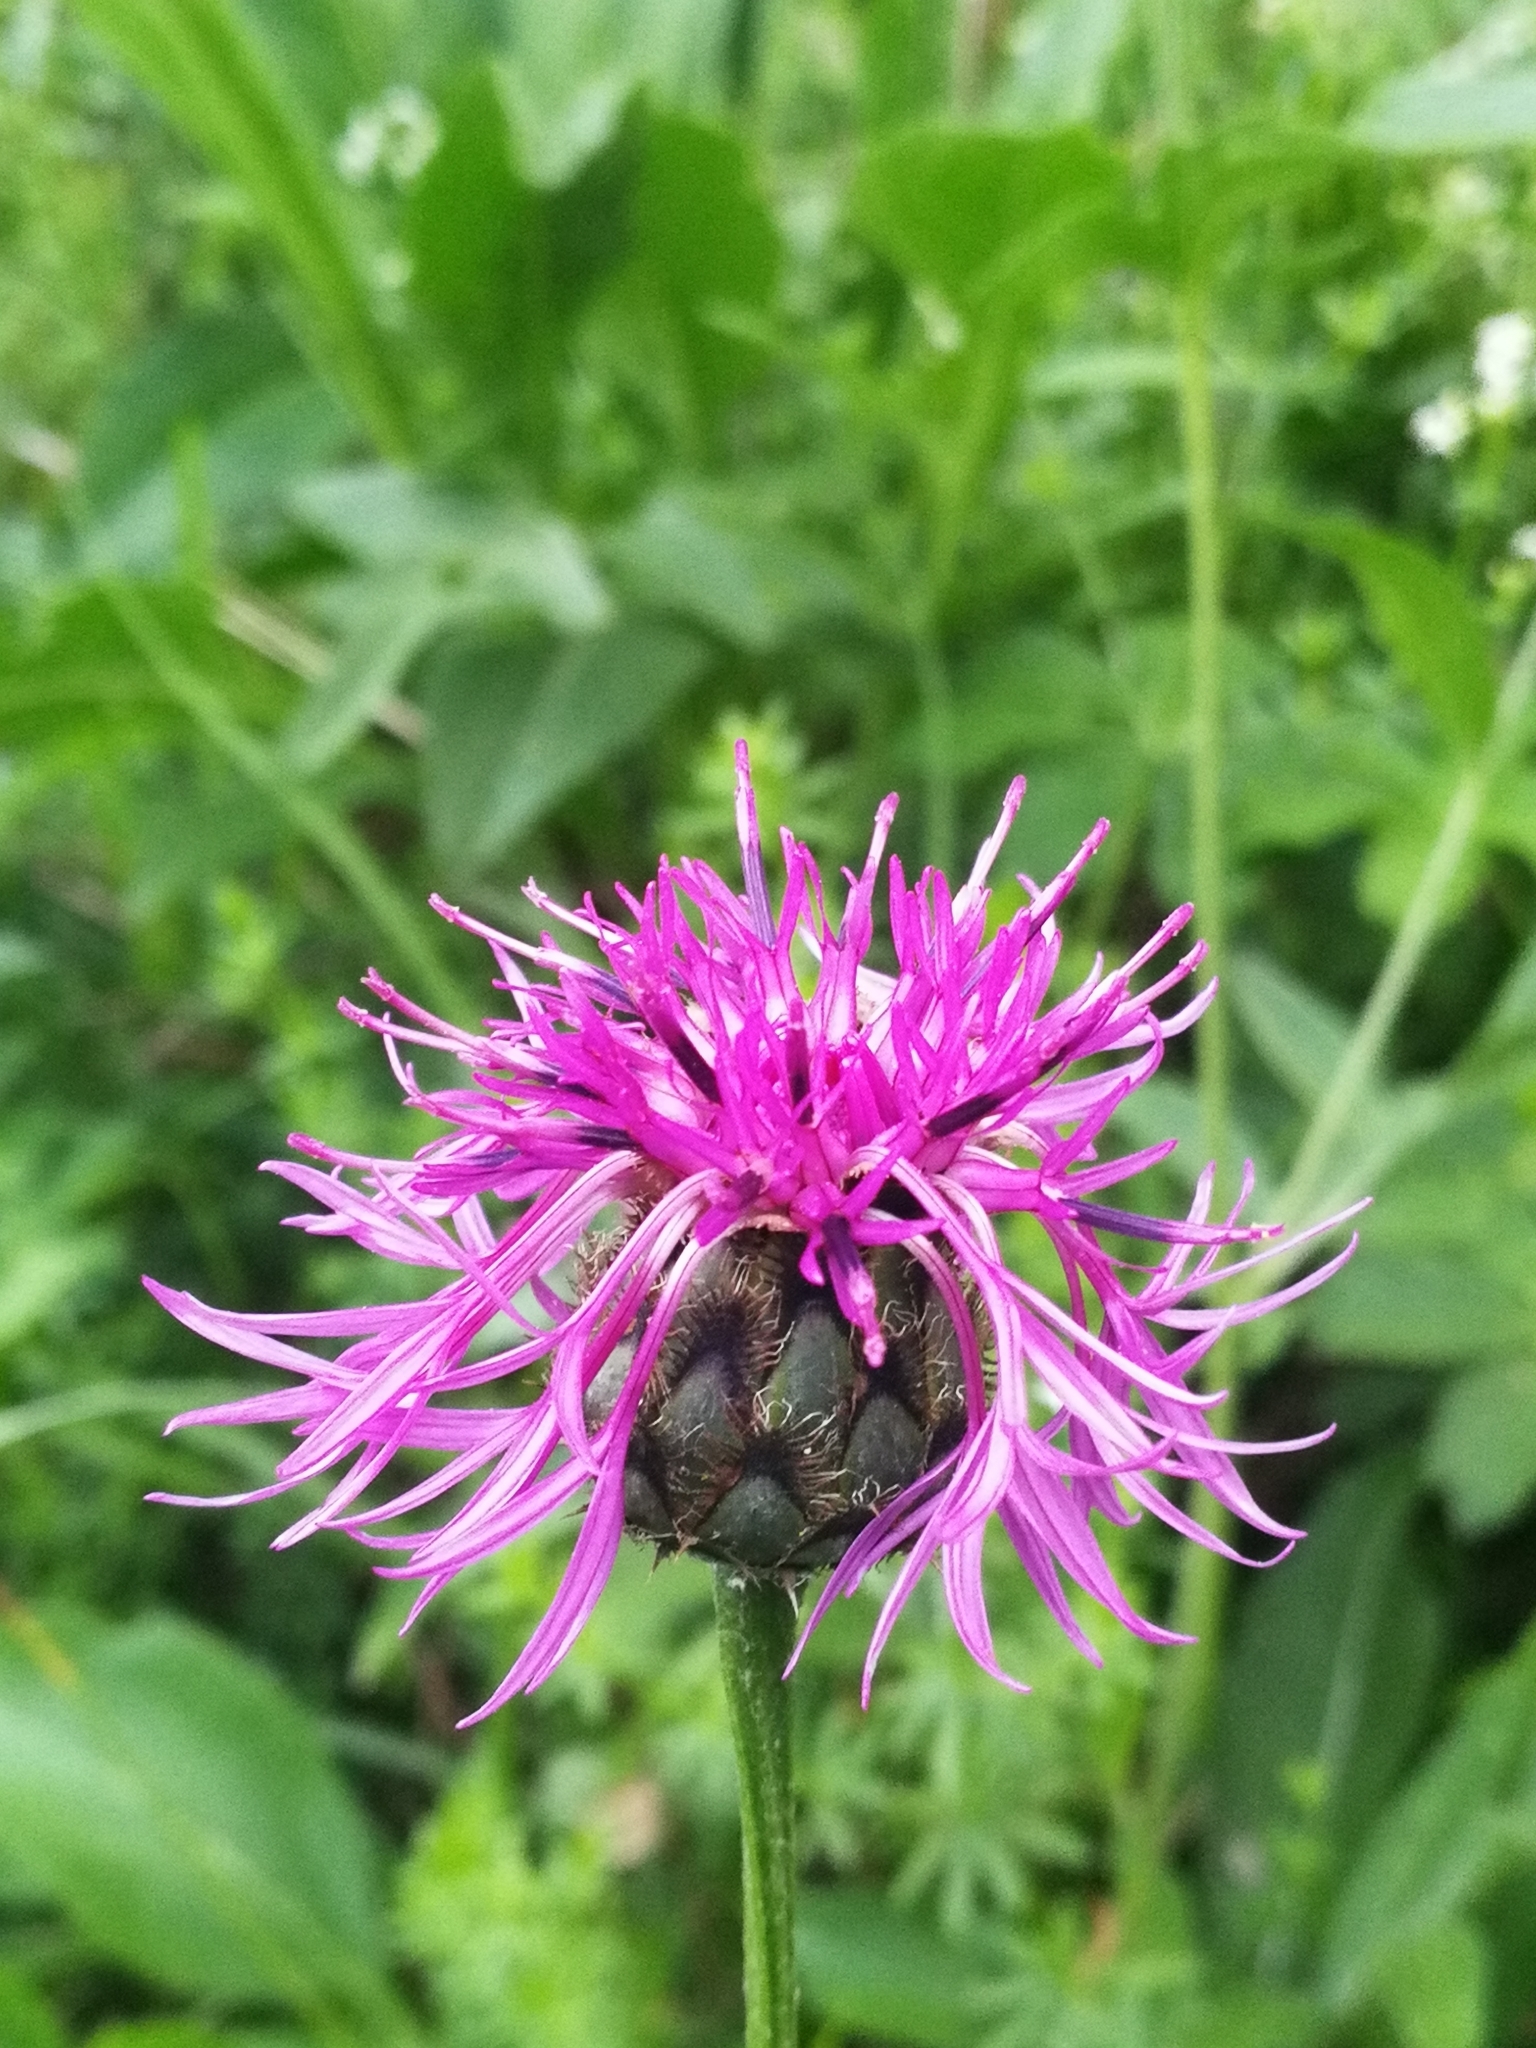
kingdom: Plantae
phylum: Tracheophyta
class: Magnoliopsida
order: Asterales
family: Asteraceae
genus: Centaurea
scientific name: Centaurea scabiosa
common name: Greater knapweed
